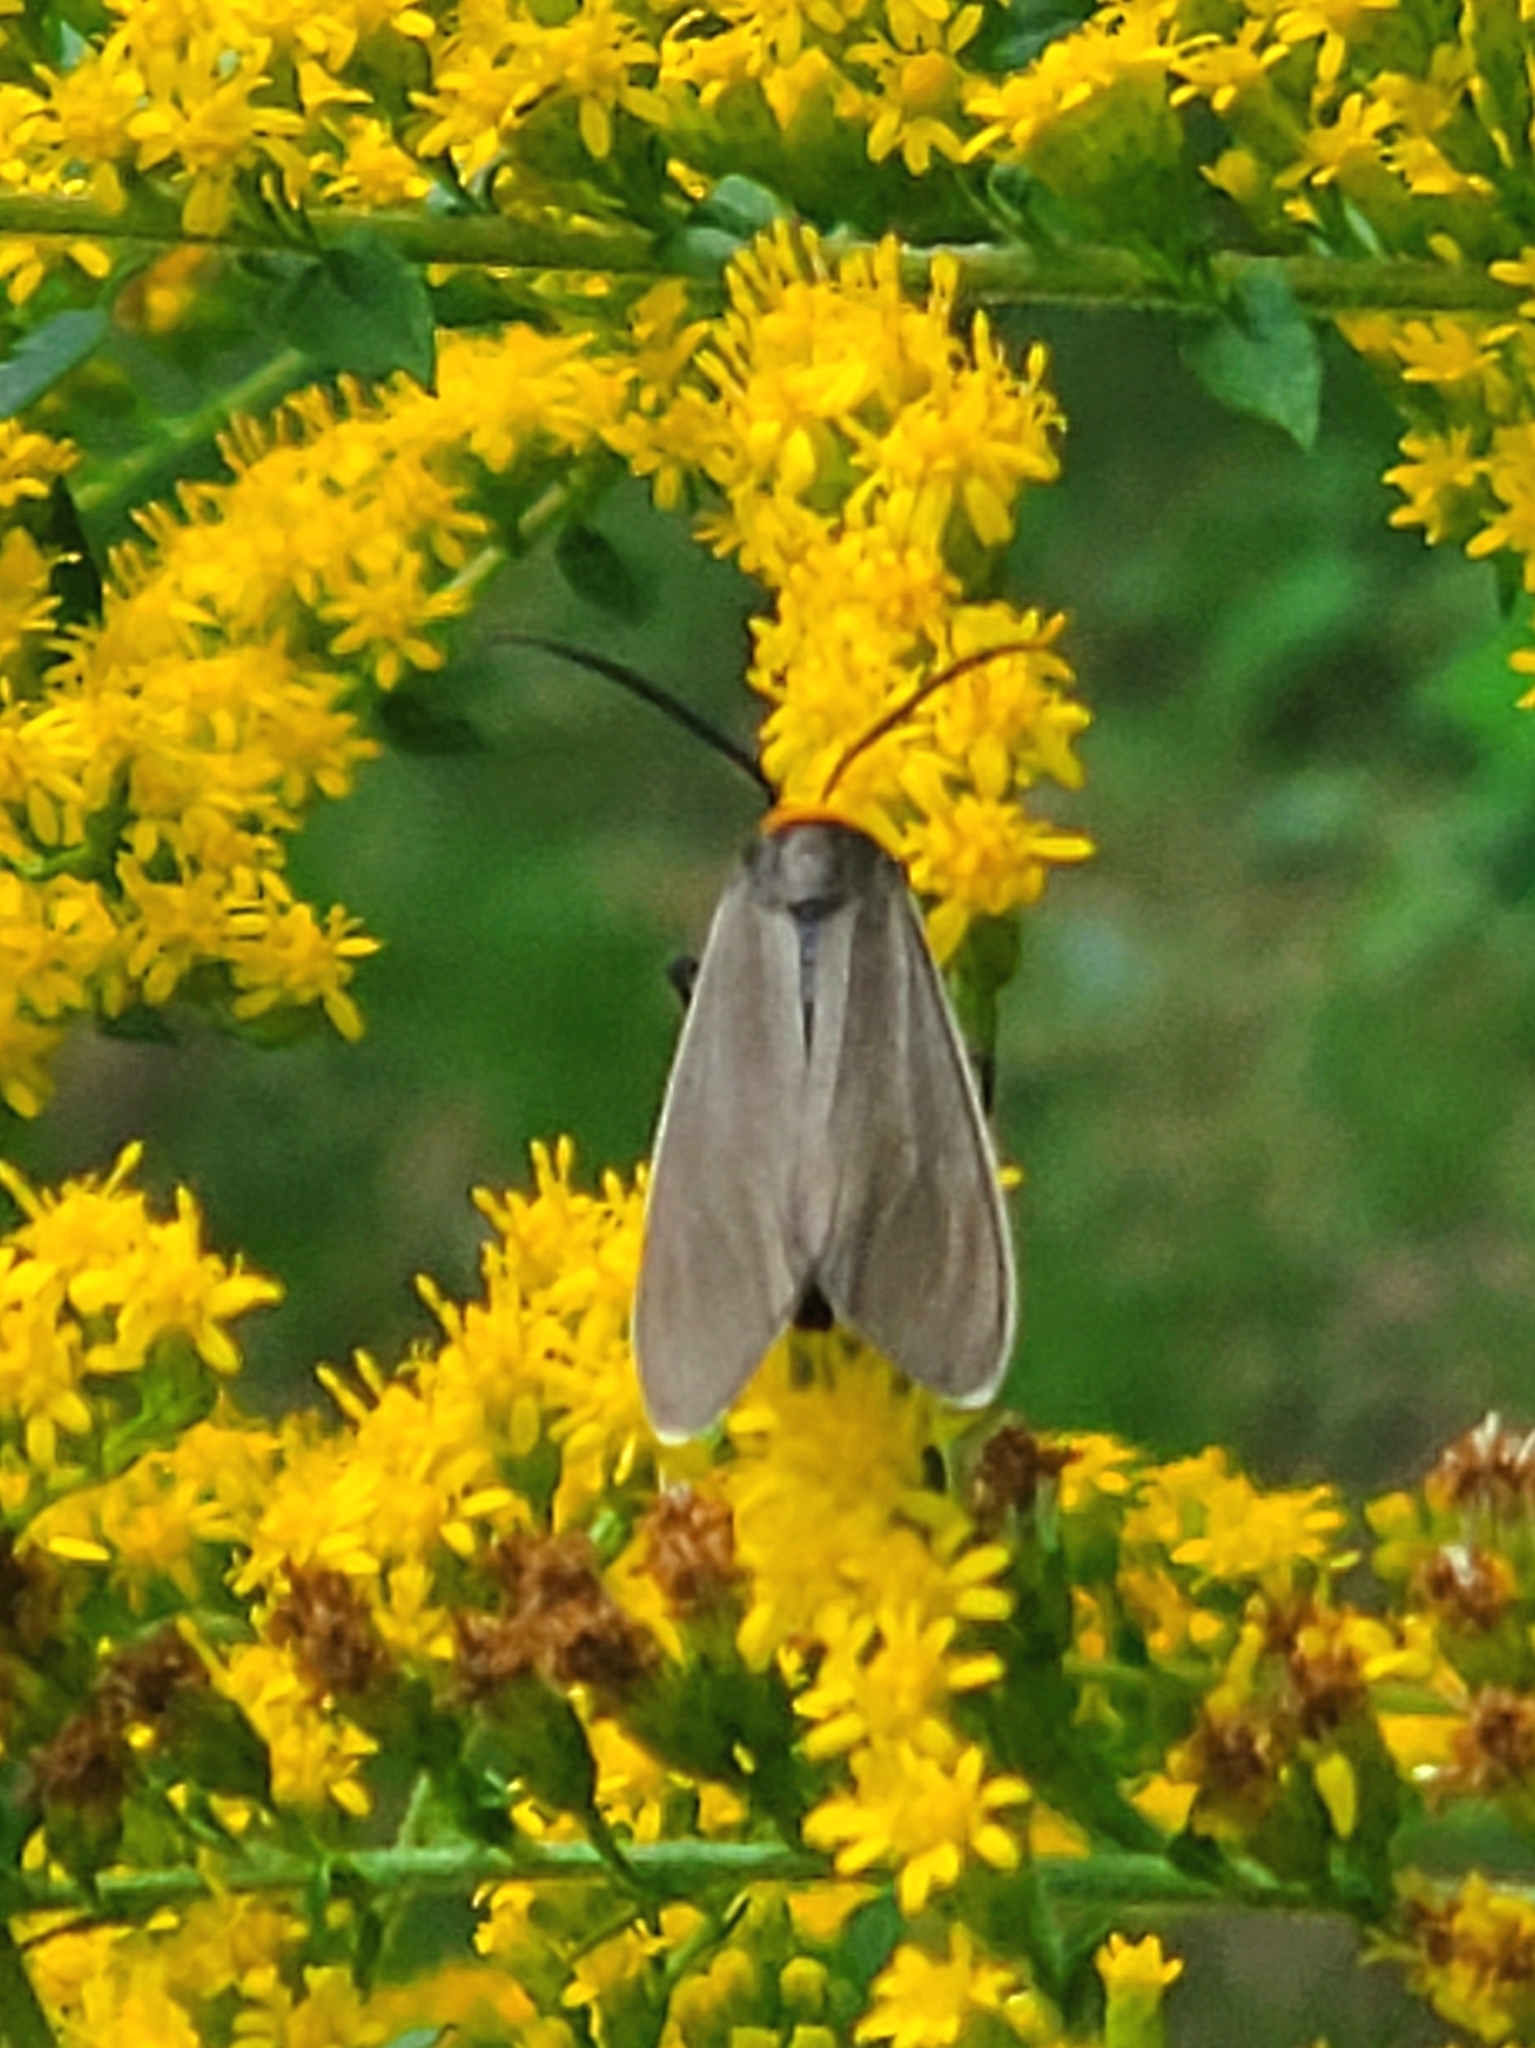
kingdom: Animalia
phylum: Arthropoda
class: Insecta
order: Lepidoptera
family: Erebidae
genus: Cisseps
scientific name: Cisseps fulvicollis
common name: Yellow-collared scape moth
